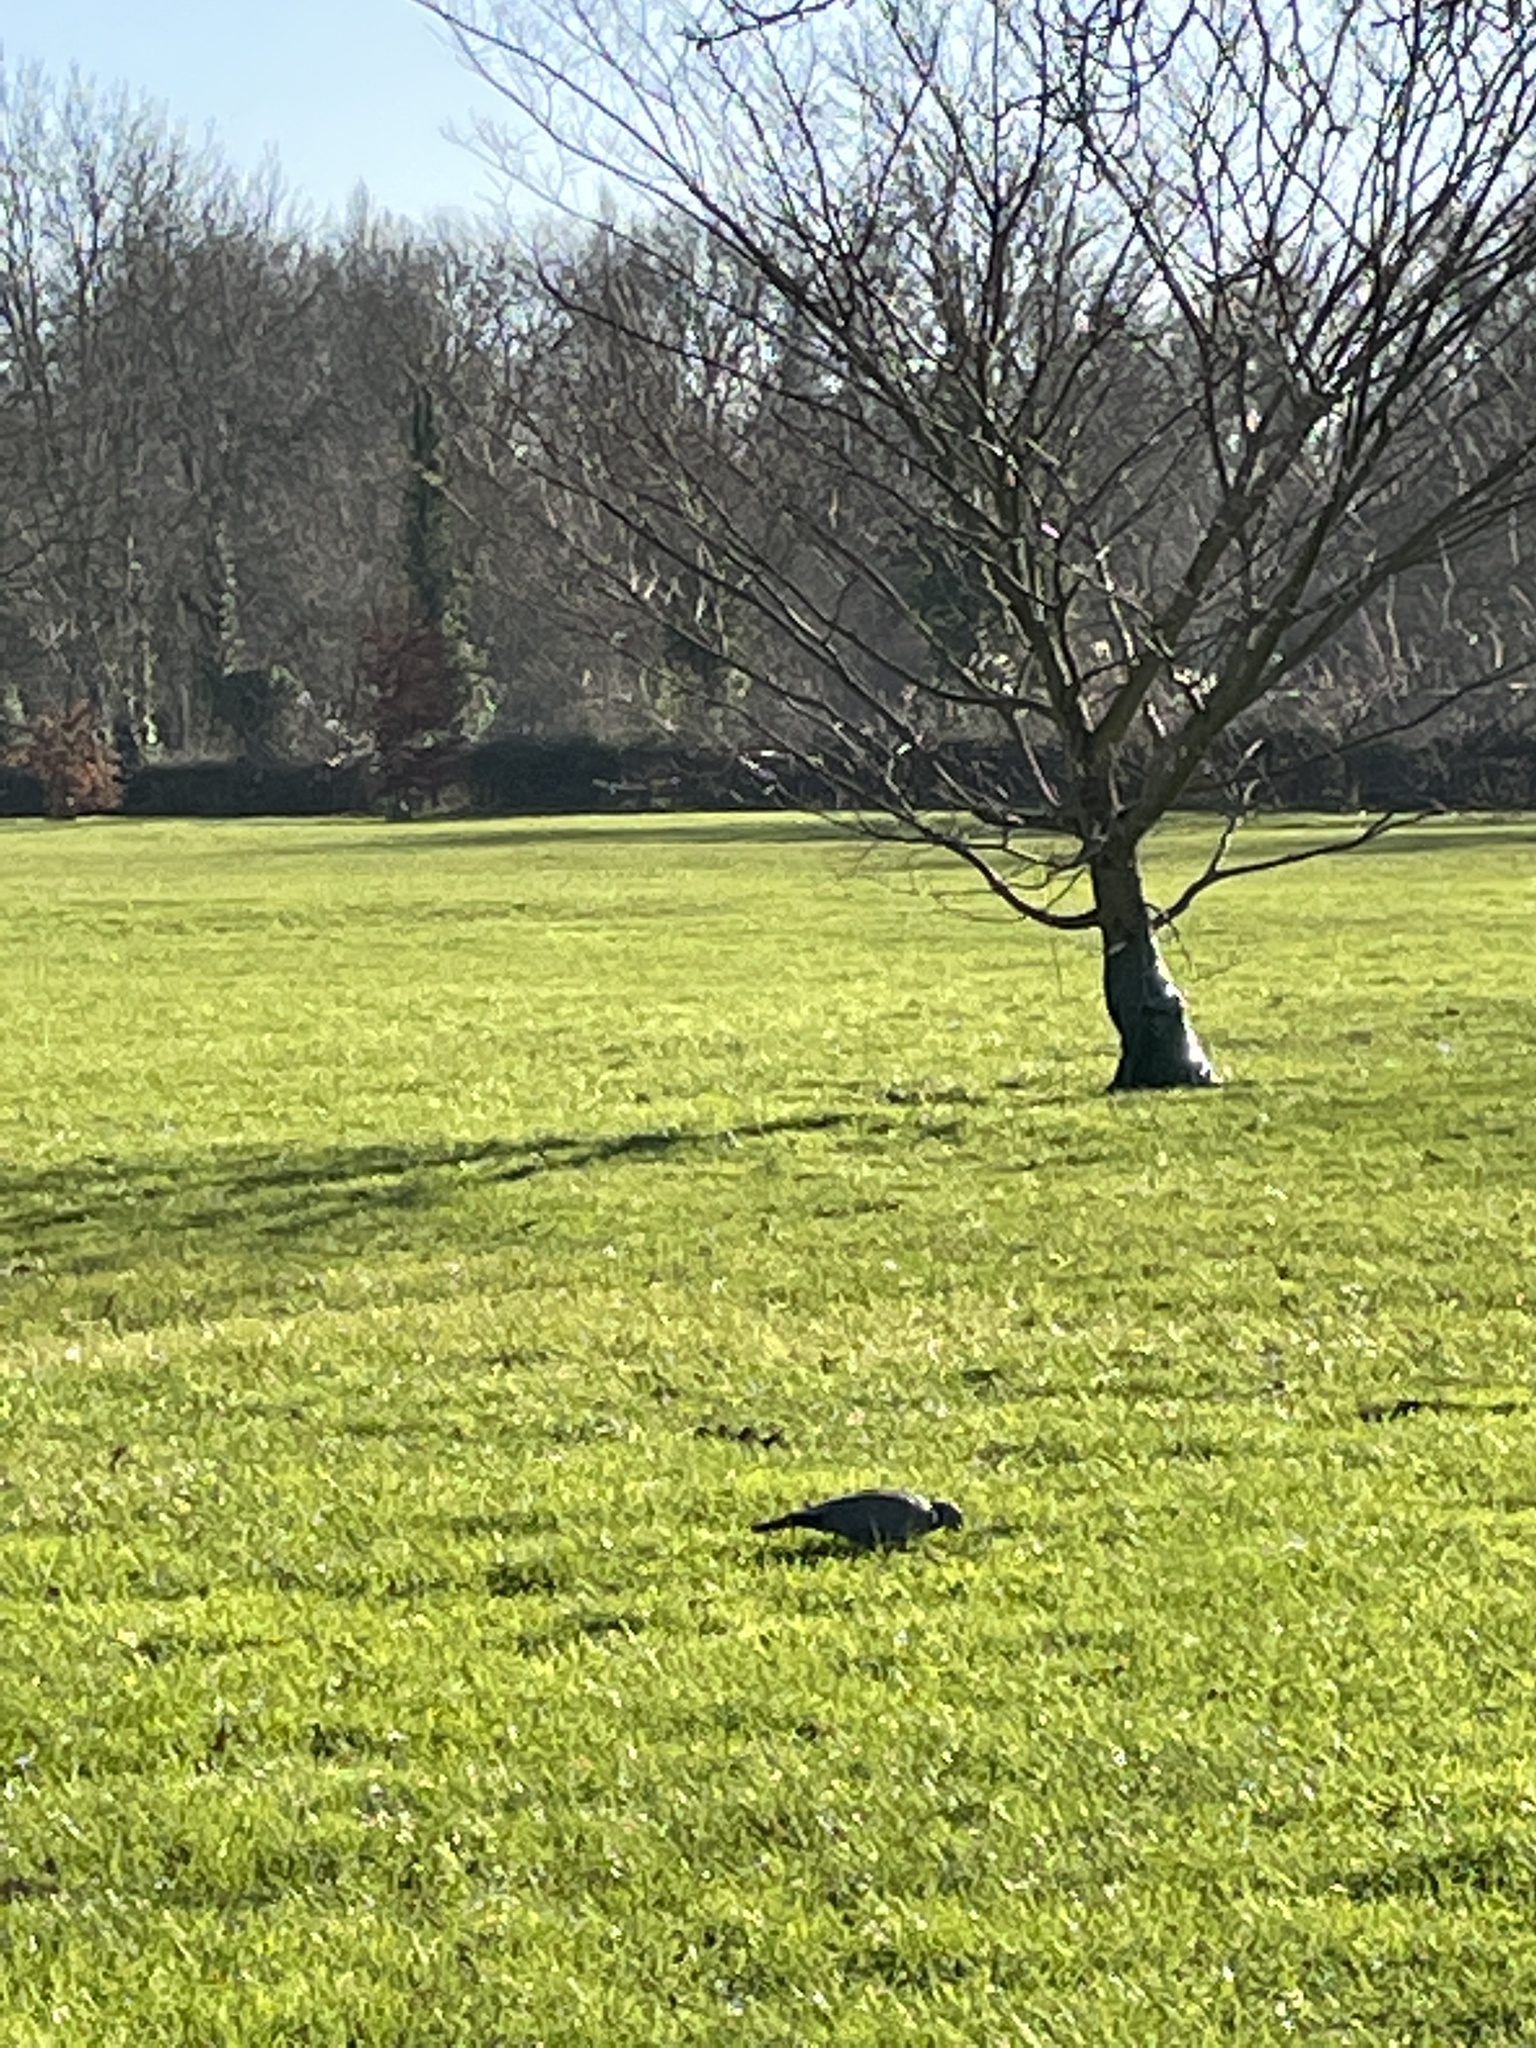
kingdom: Animalia
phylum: Chordata
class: Aves
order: Columbiformes
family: Columbidae
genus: Columba
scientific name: Columba palumbus
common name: Common wood pigeon
